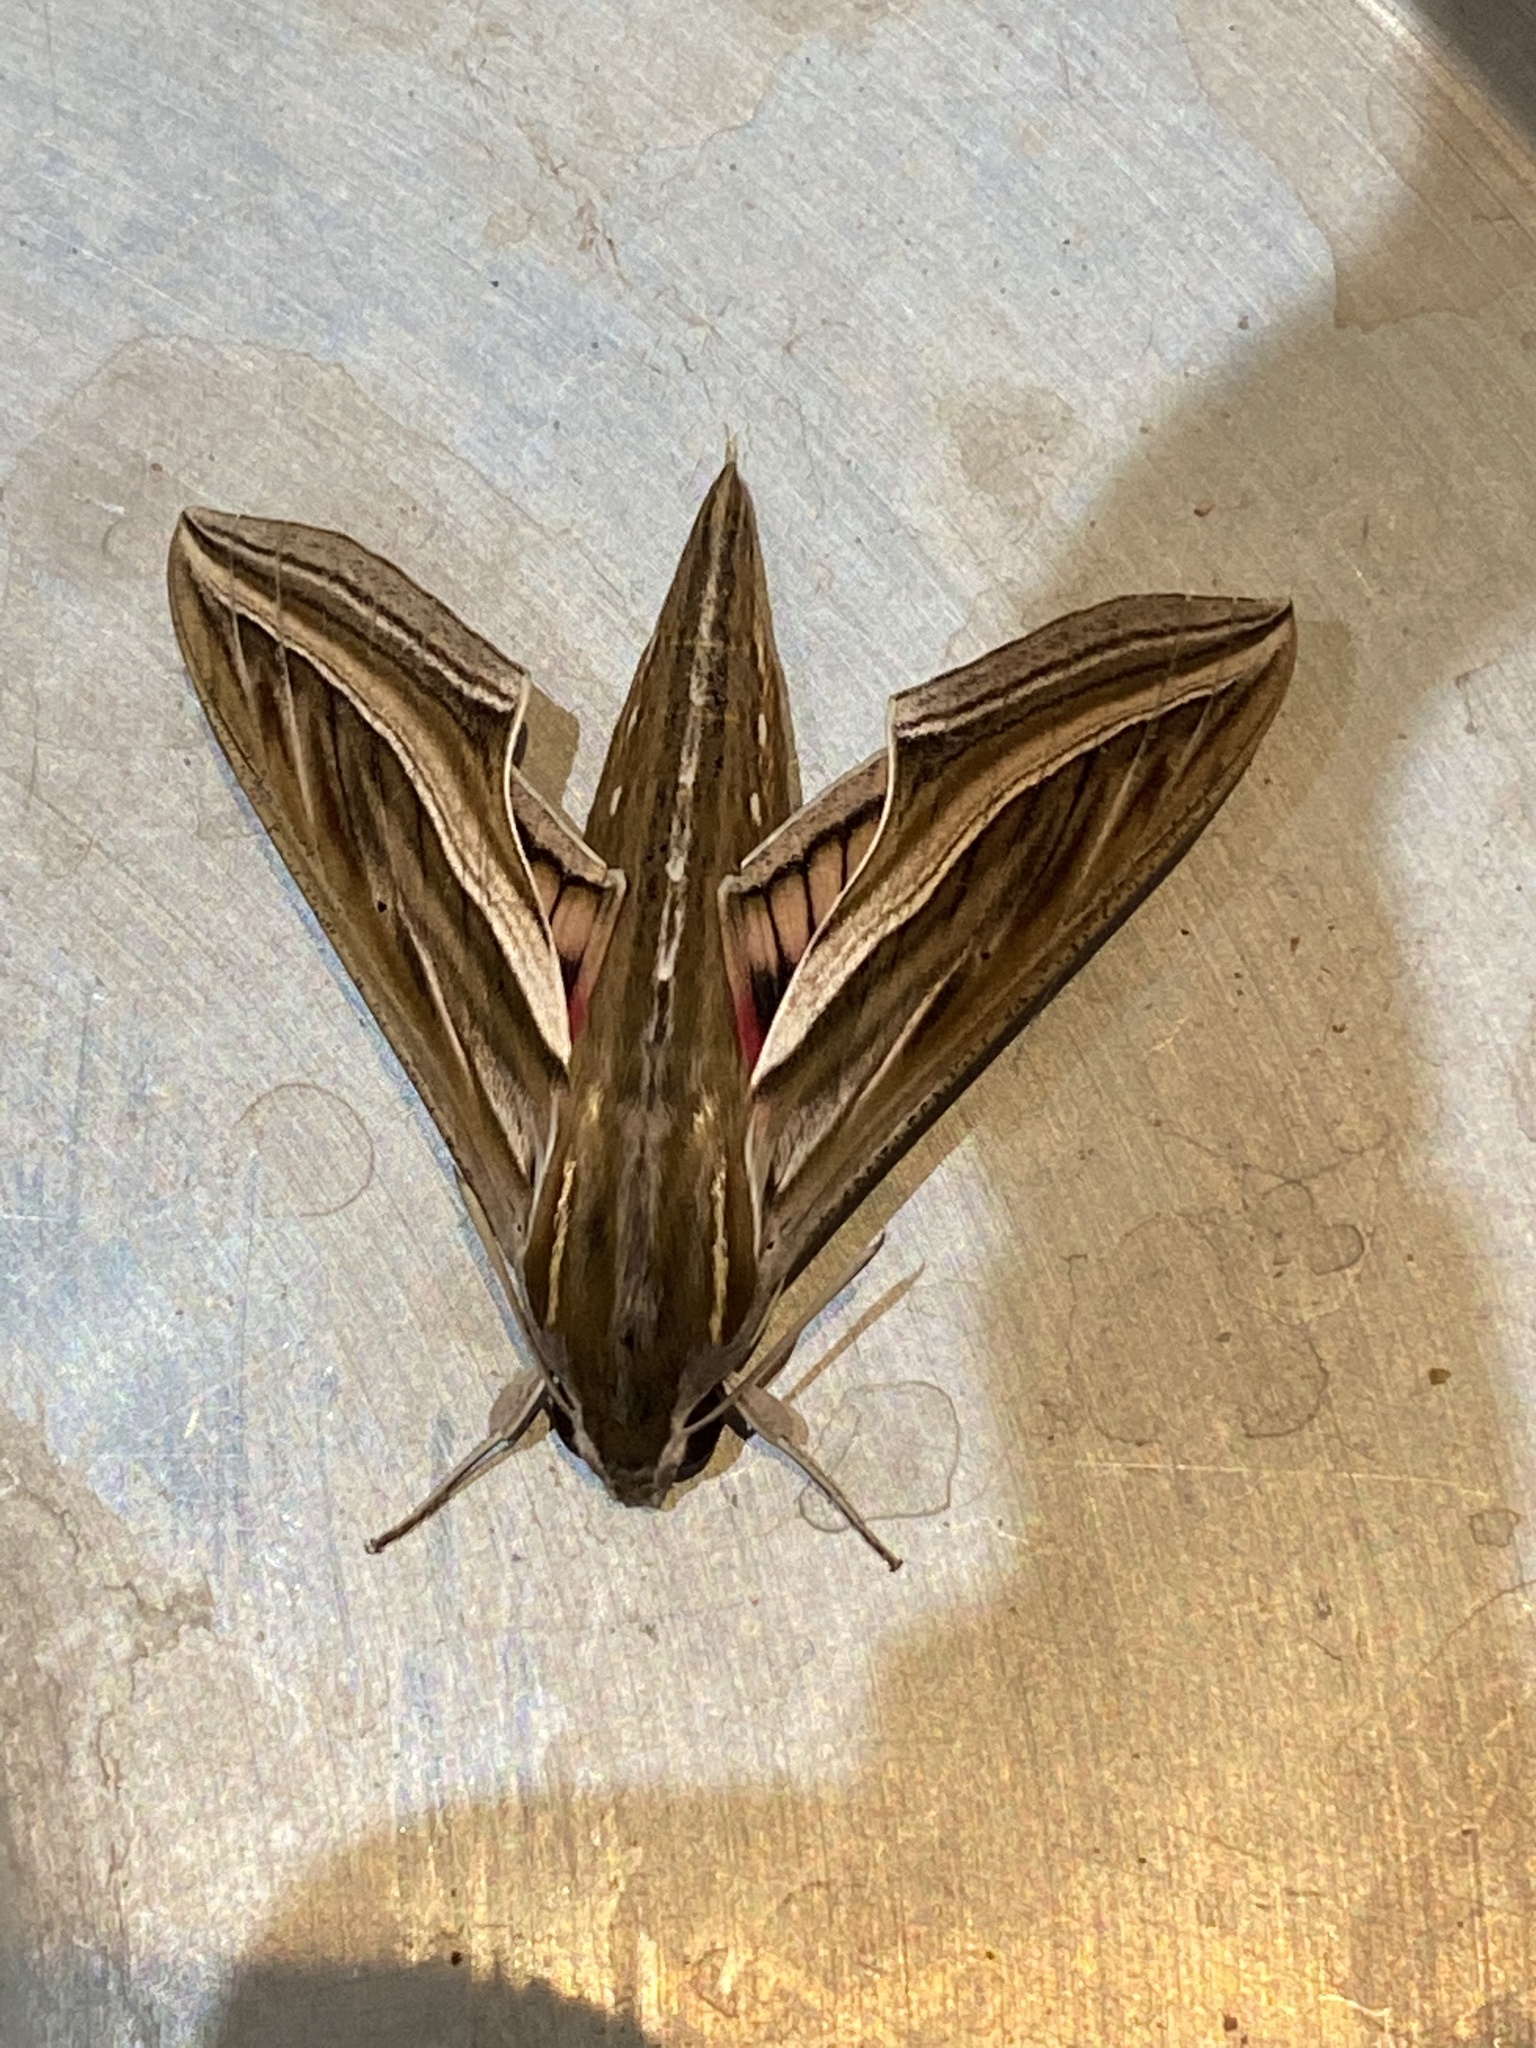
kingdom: Animalia
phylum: Arthropoda
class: Insecta
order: Lepidoptera
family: Sphingidae
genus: Hippotion
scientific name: Hippotion celerio
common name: Silver-striped hawk-moth
